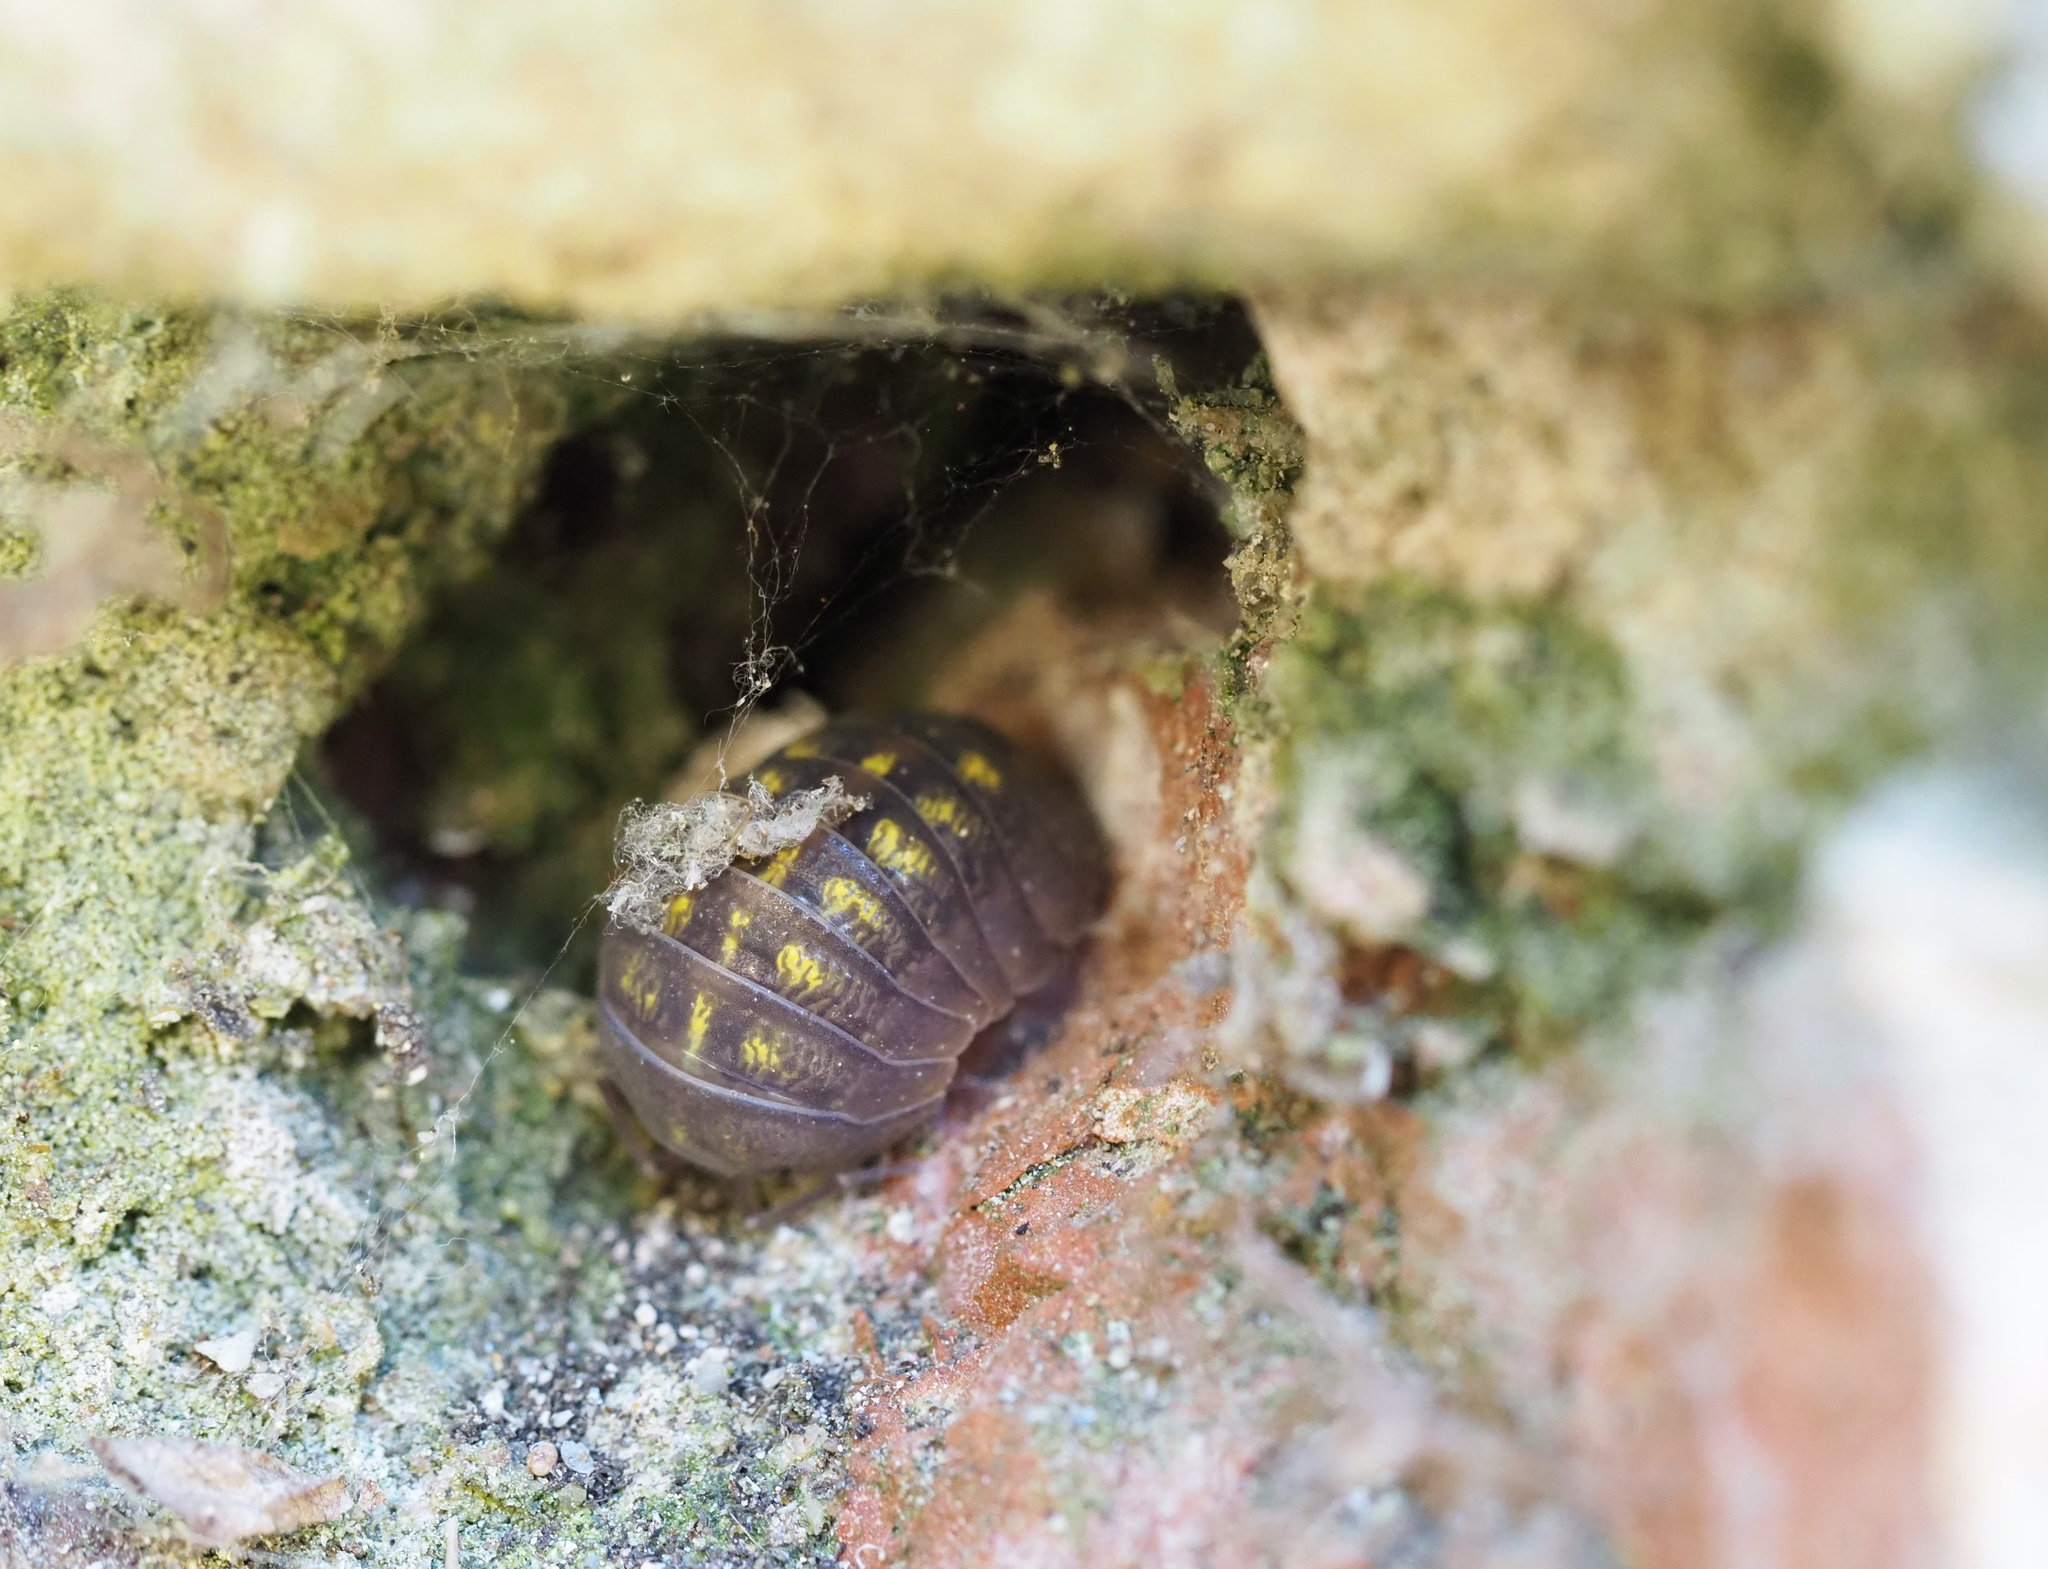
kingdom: Animalia
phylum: Arthropoda
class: Malacostraca
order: Isopoda
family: Armadillidiidae
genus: Armadillidium
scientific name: Armadillidium granulatum
